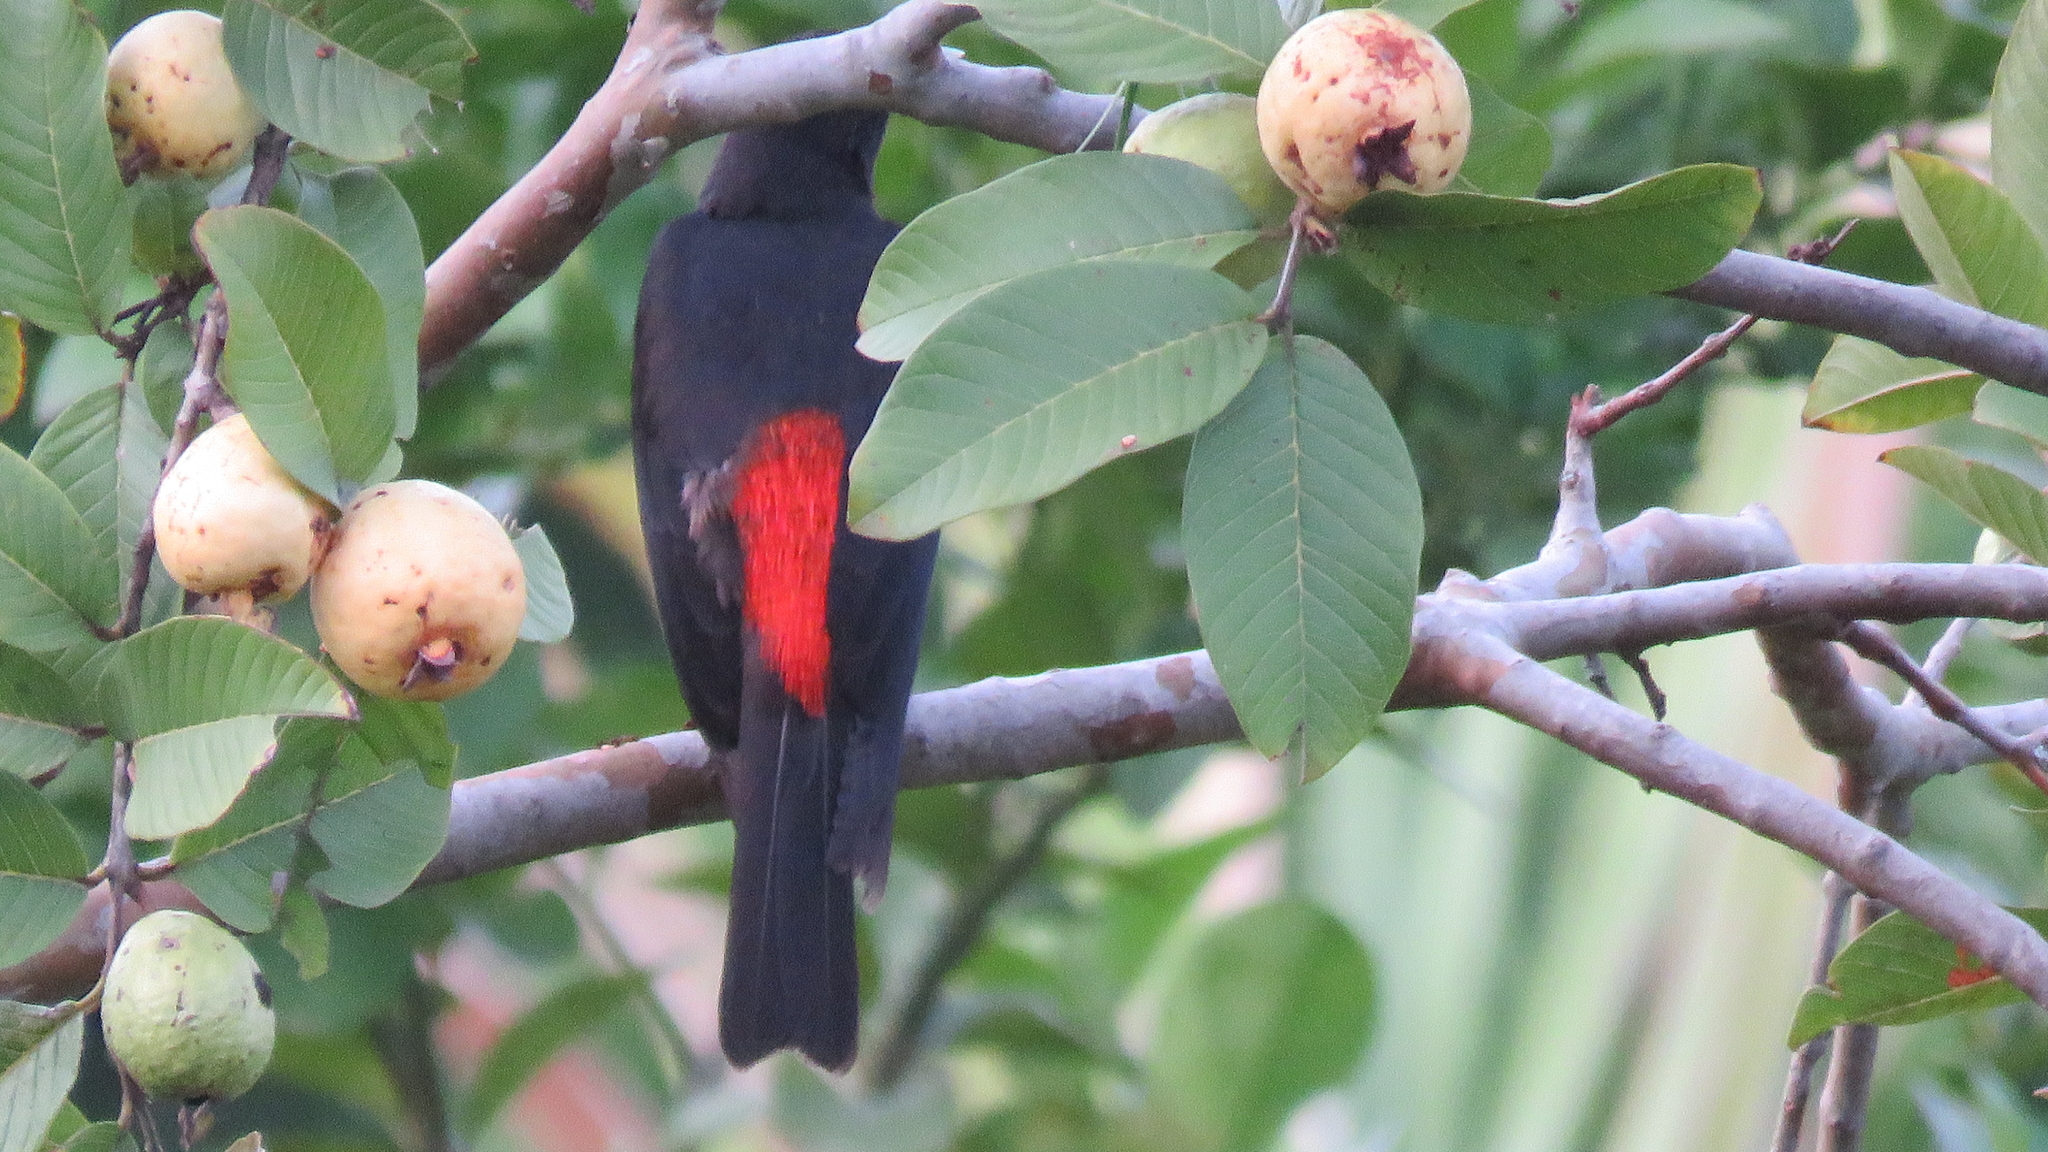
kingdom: Animalia
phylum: Chordata
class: Aves
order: Passeriformes
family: Icteridae
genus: Cacicus
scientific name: Cacicus haemorrhous
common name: Red-rumped cacique
